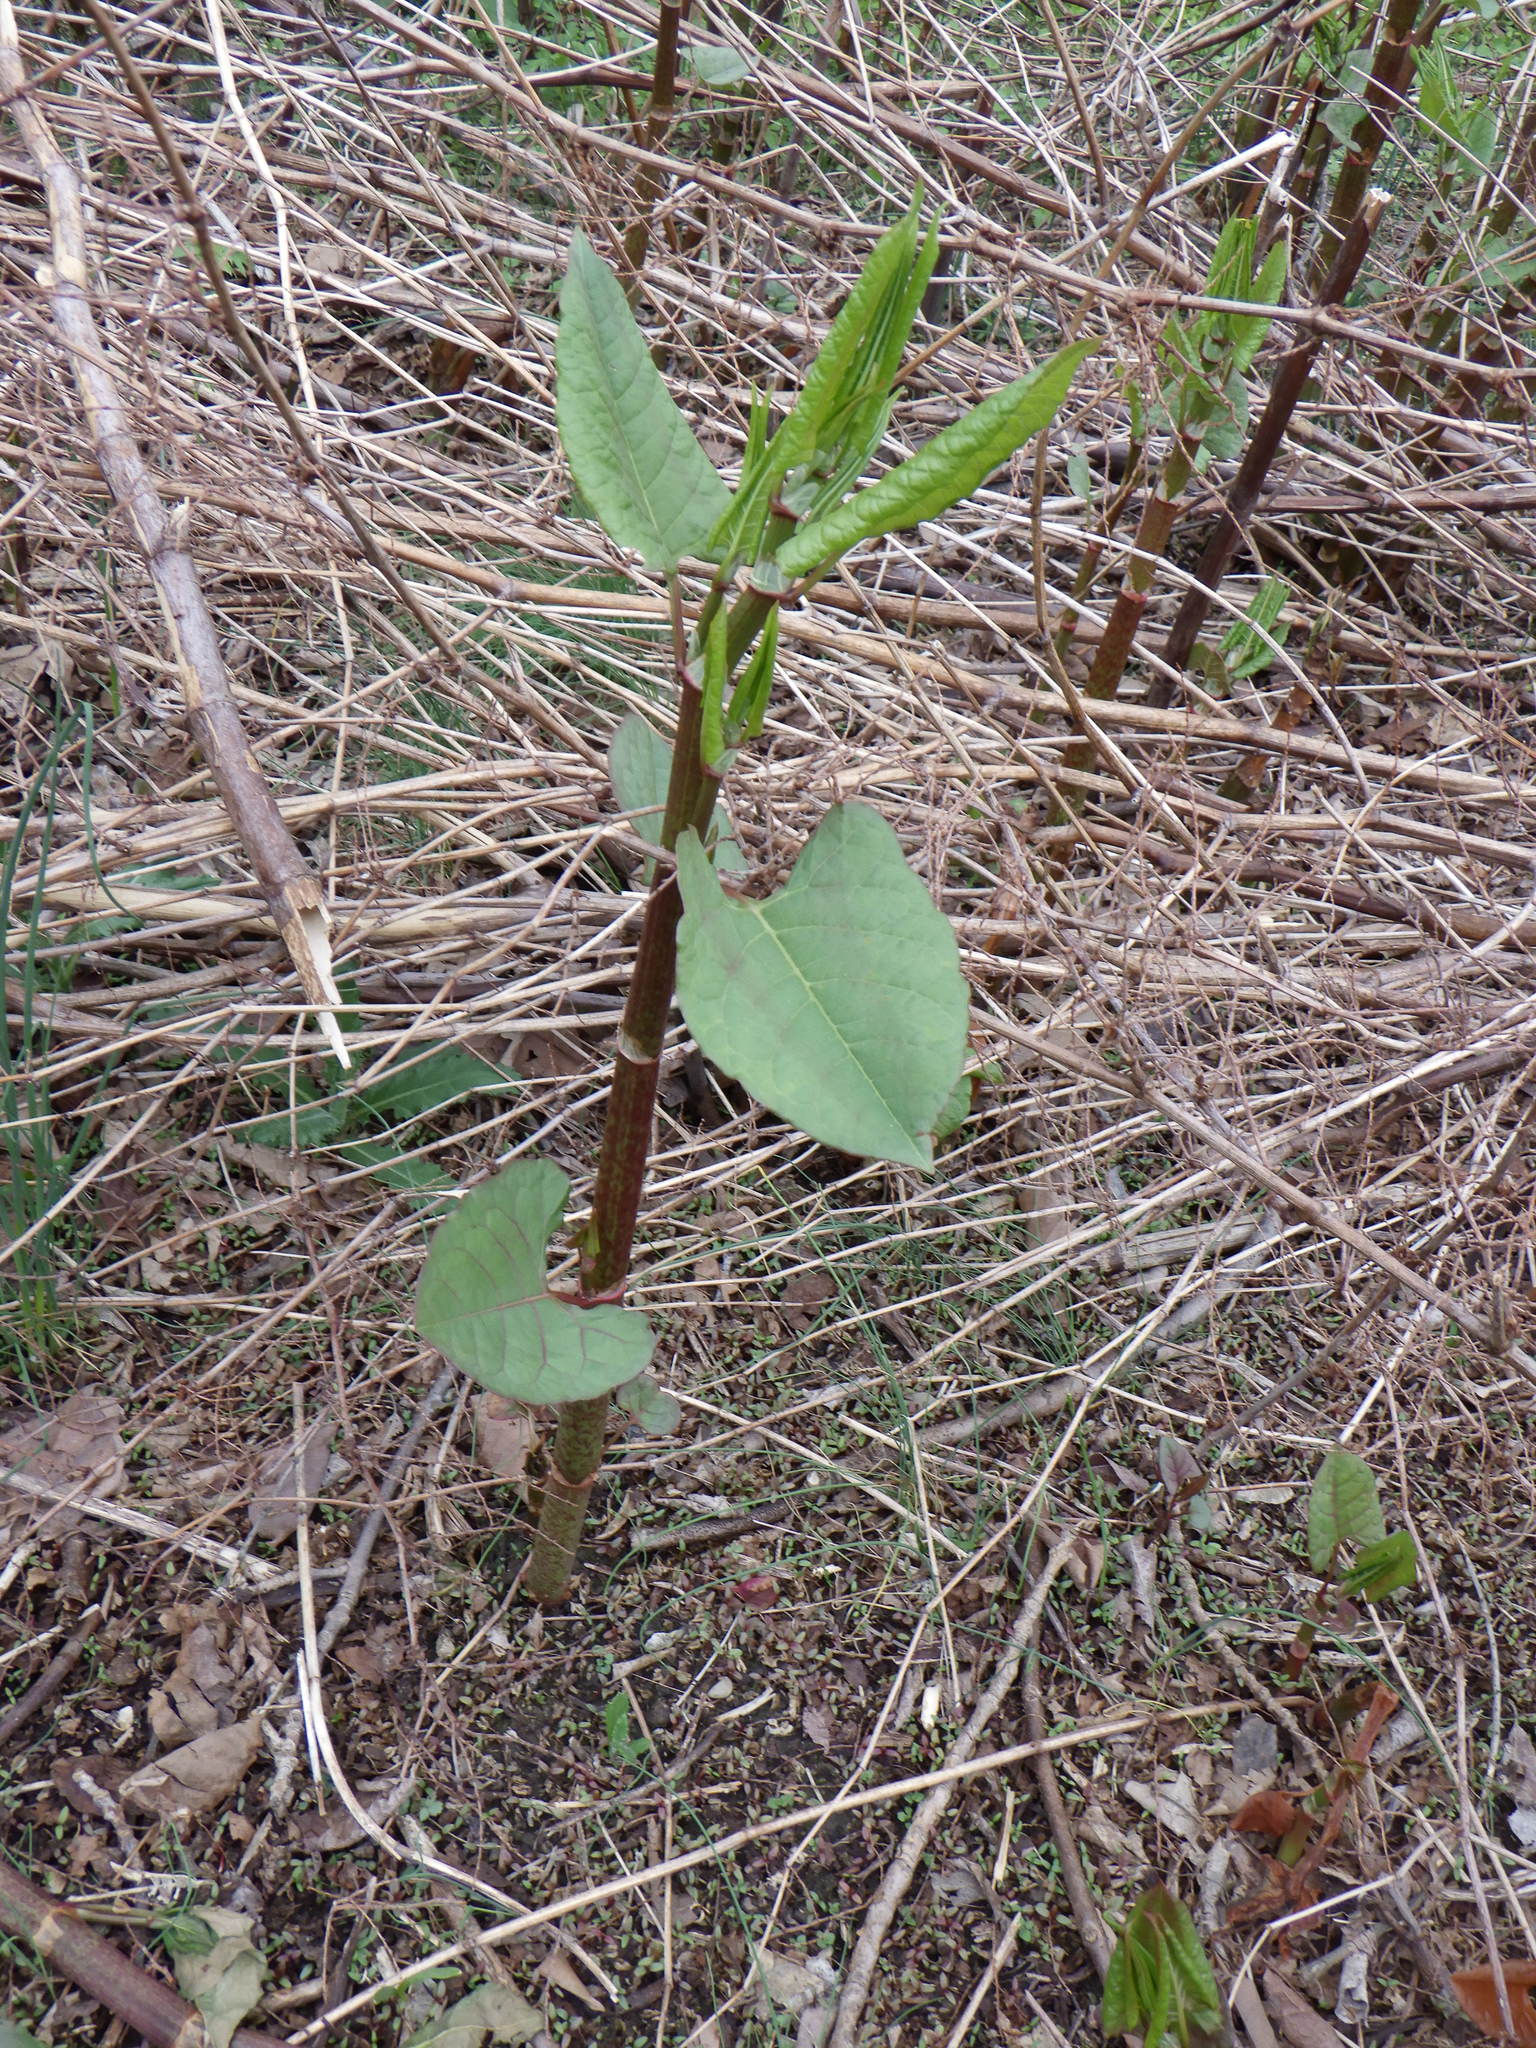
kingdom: Plantae
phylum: Tracheophyta
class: Magnoliopsida
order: Caryophyllales
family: Polygonaceae
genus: Reynoutria
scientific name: Reynoutria japonica
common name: Japanese knotweed
